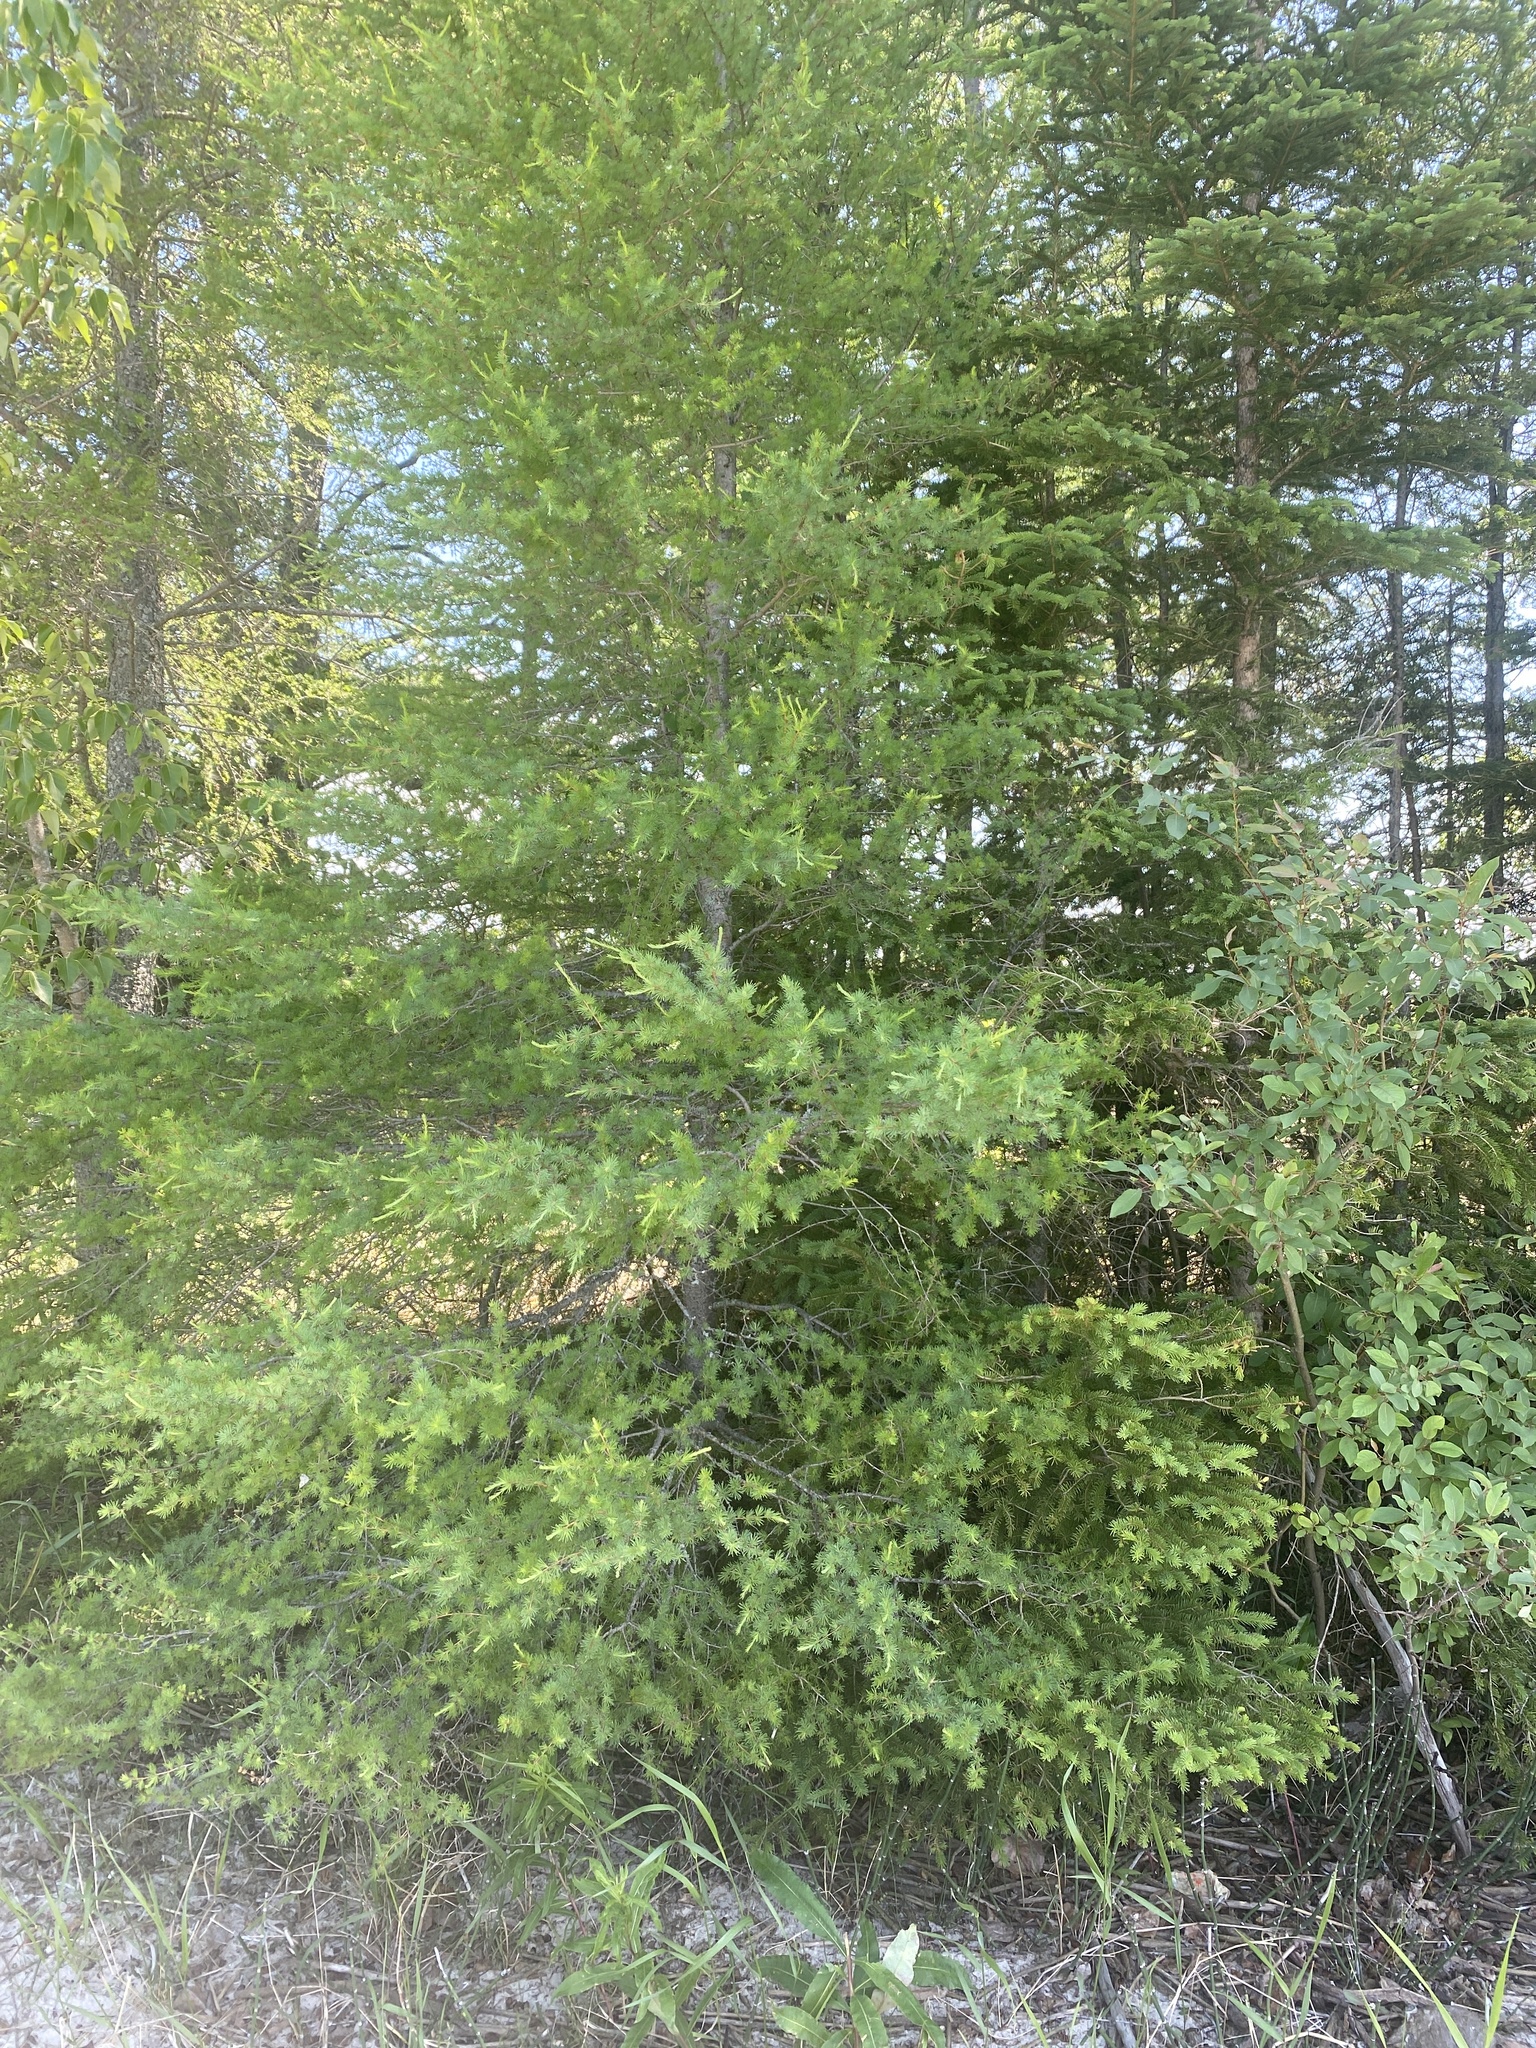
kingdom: Plantae
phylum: Tracheophyta
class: Pinopsida
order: Pinales
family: Pinaceae
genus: Larix
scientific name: Larix laricina
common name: American larch
